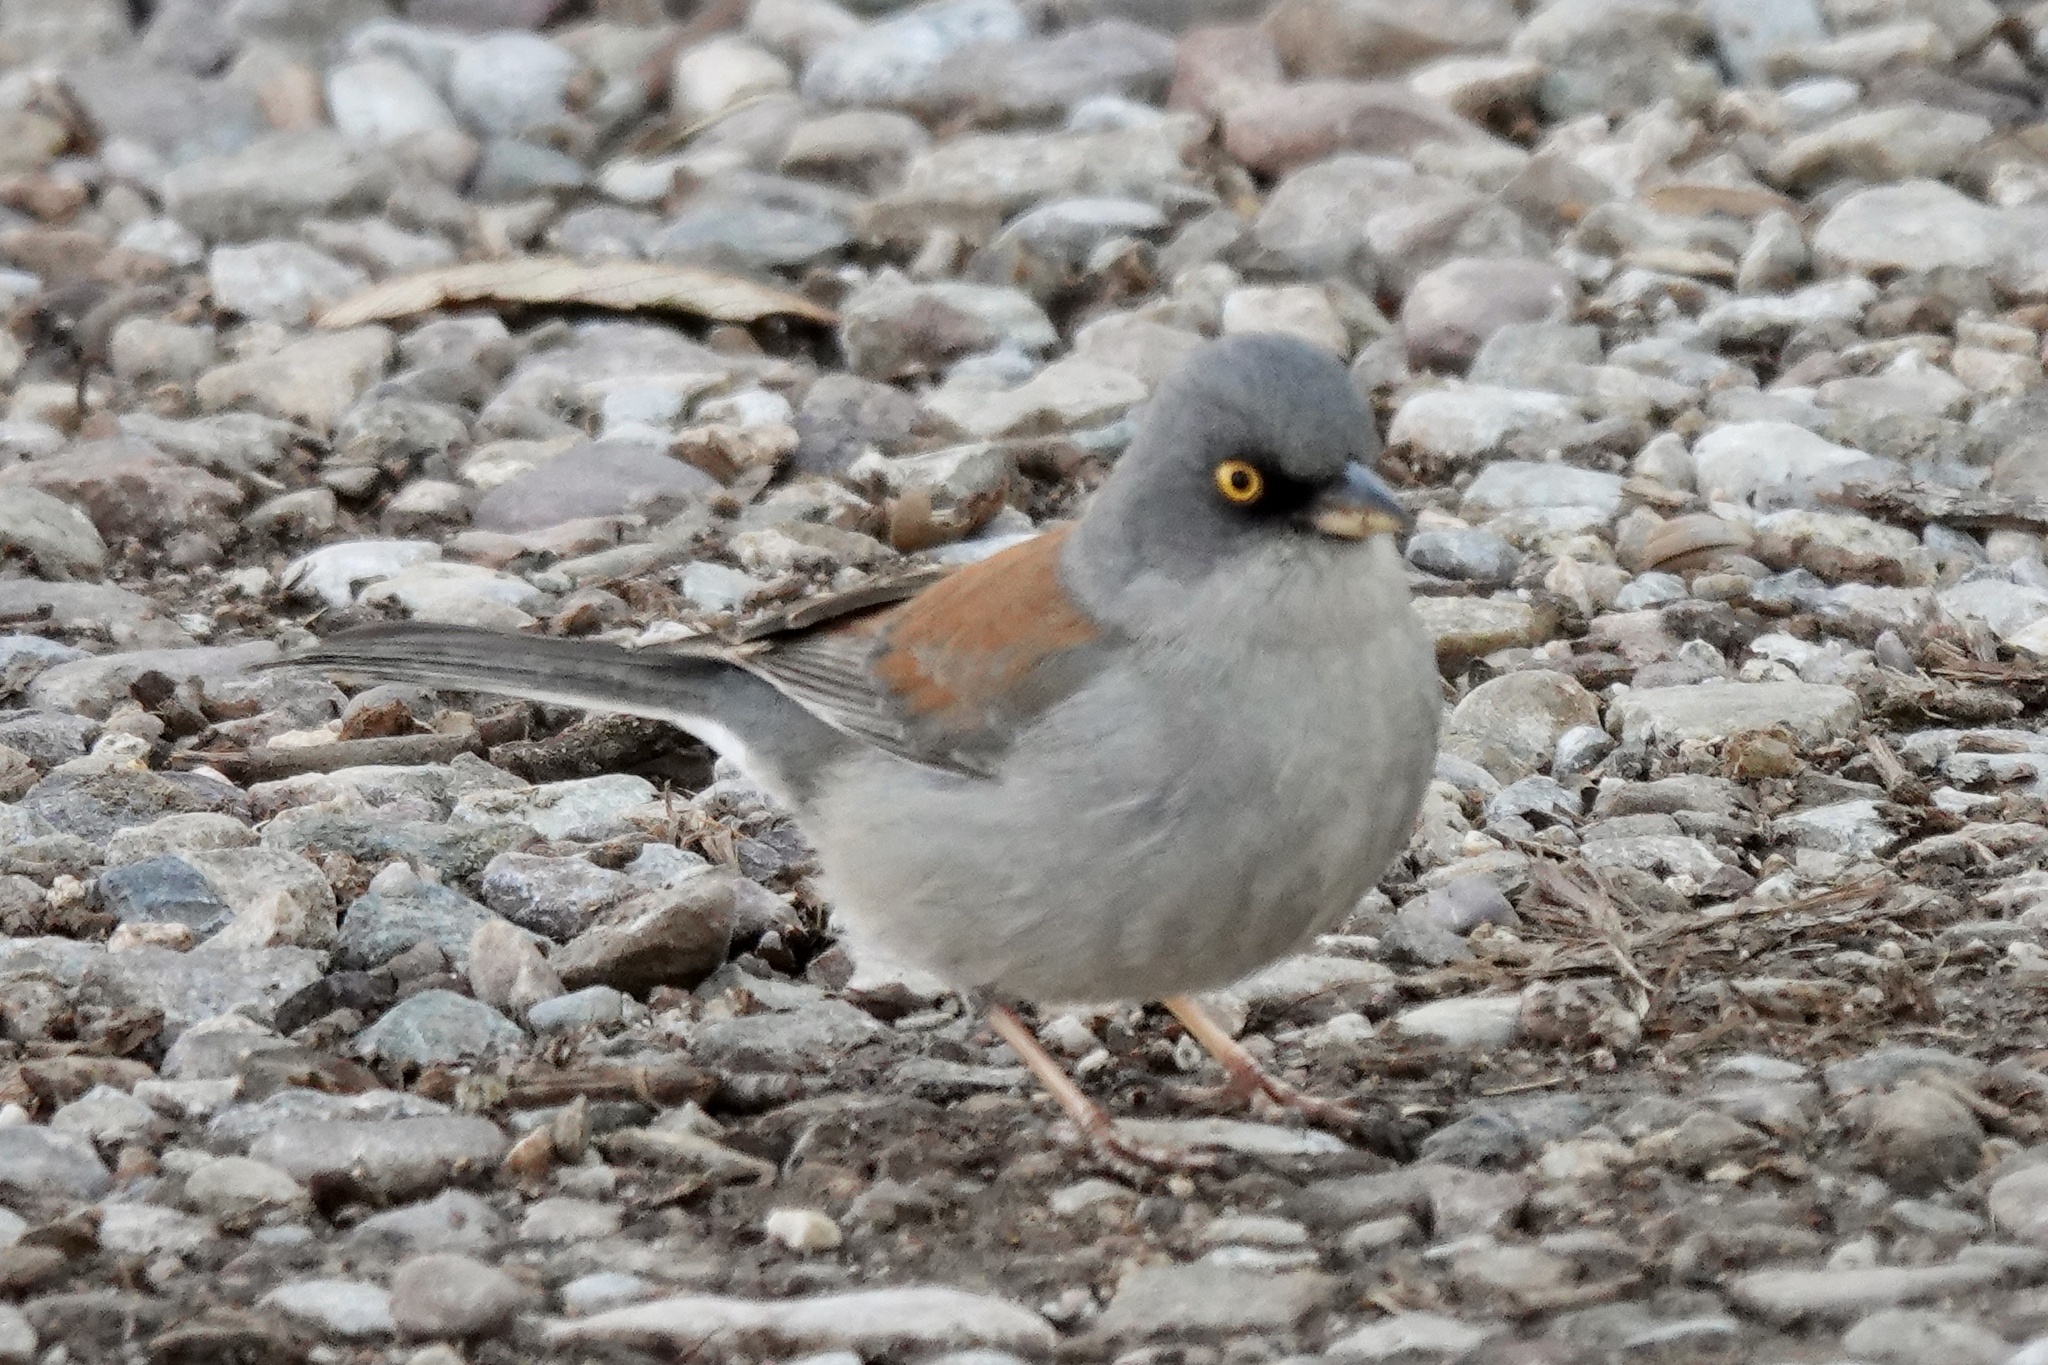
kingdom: Animalia
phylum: Chordata
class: Aves
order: Passeriformes
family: Passerellidae
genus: Junco
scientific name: Junco phaeonotus
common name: Yellow-eyed junco
